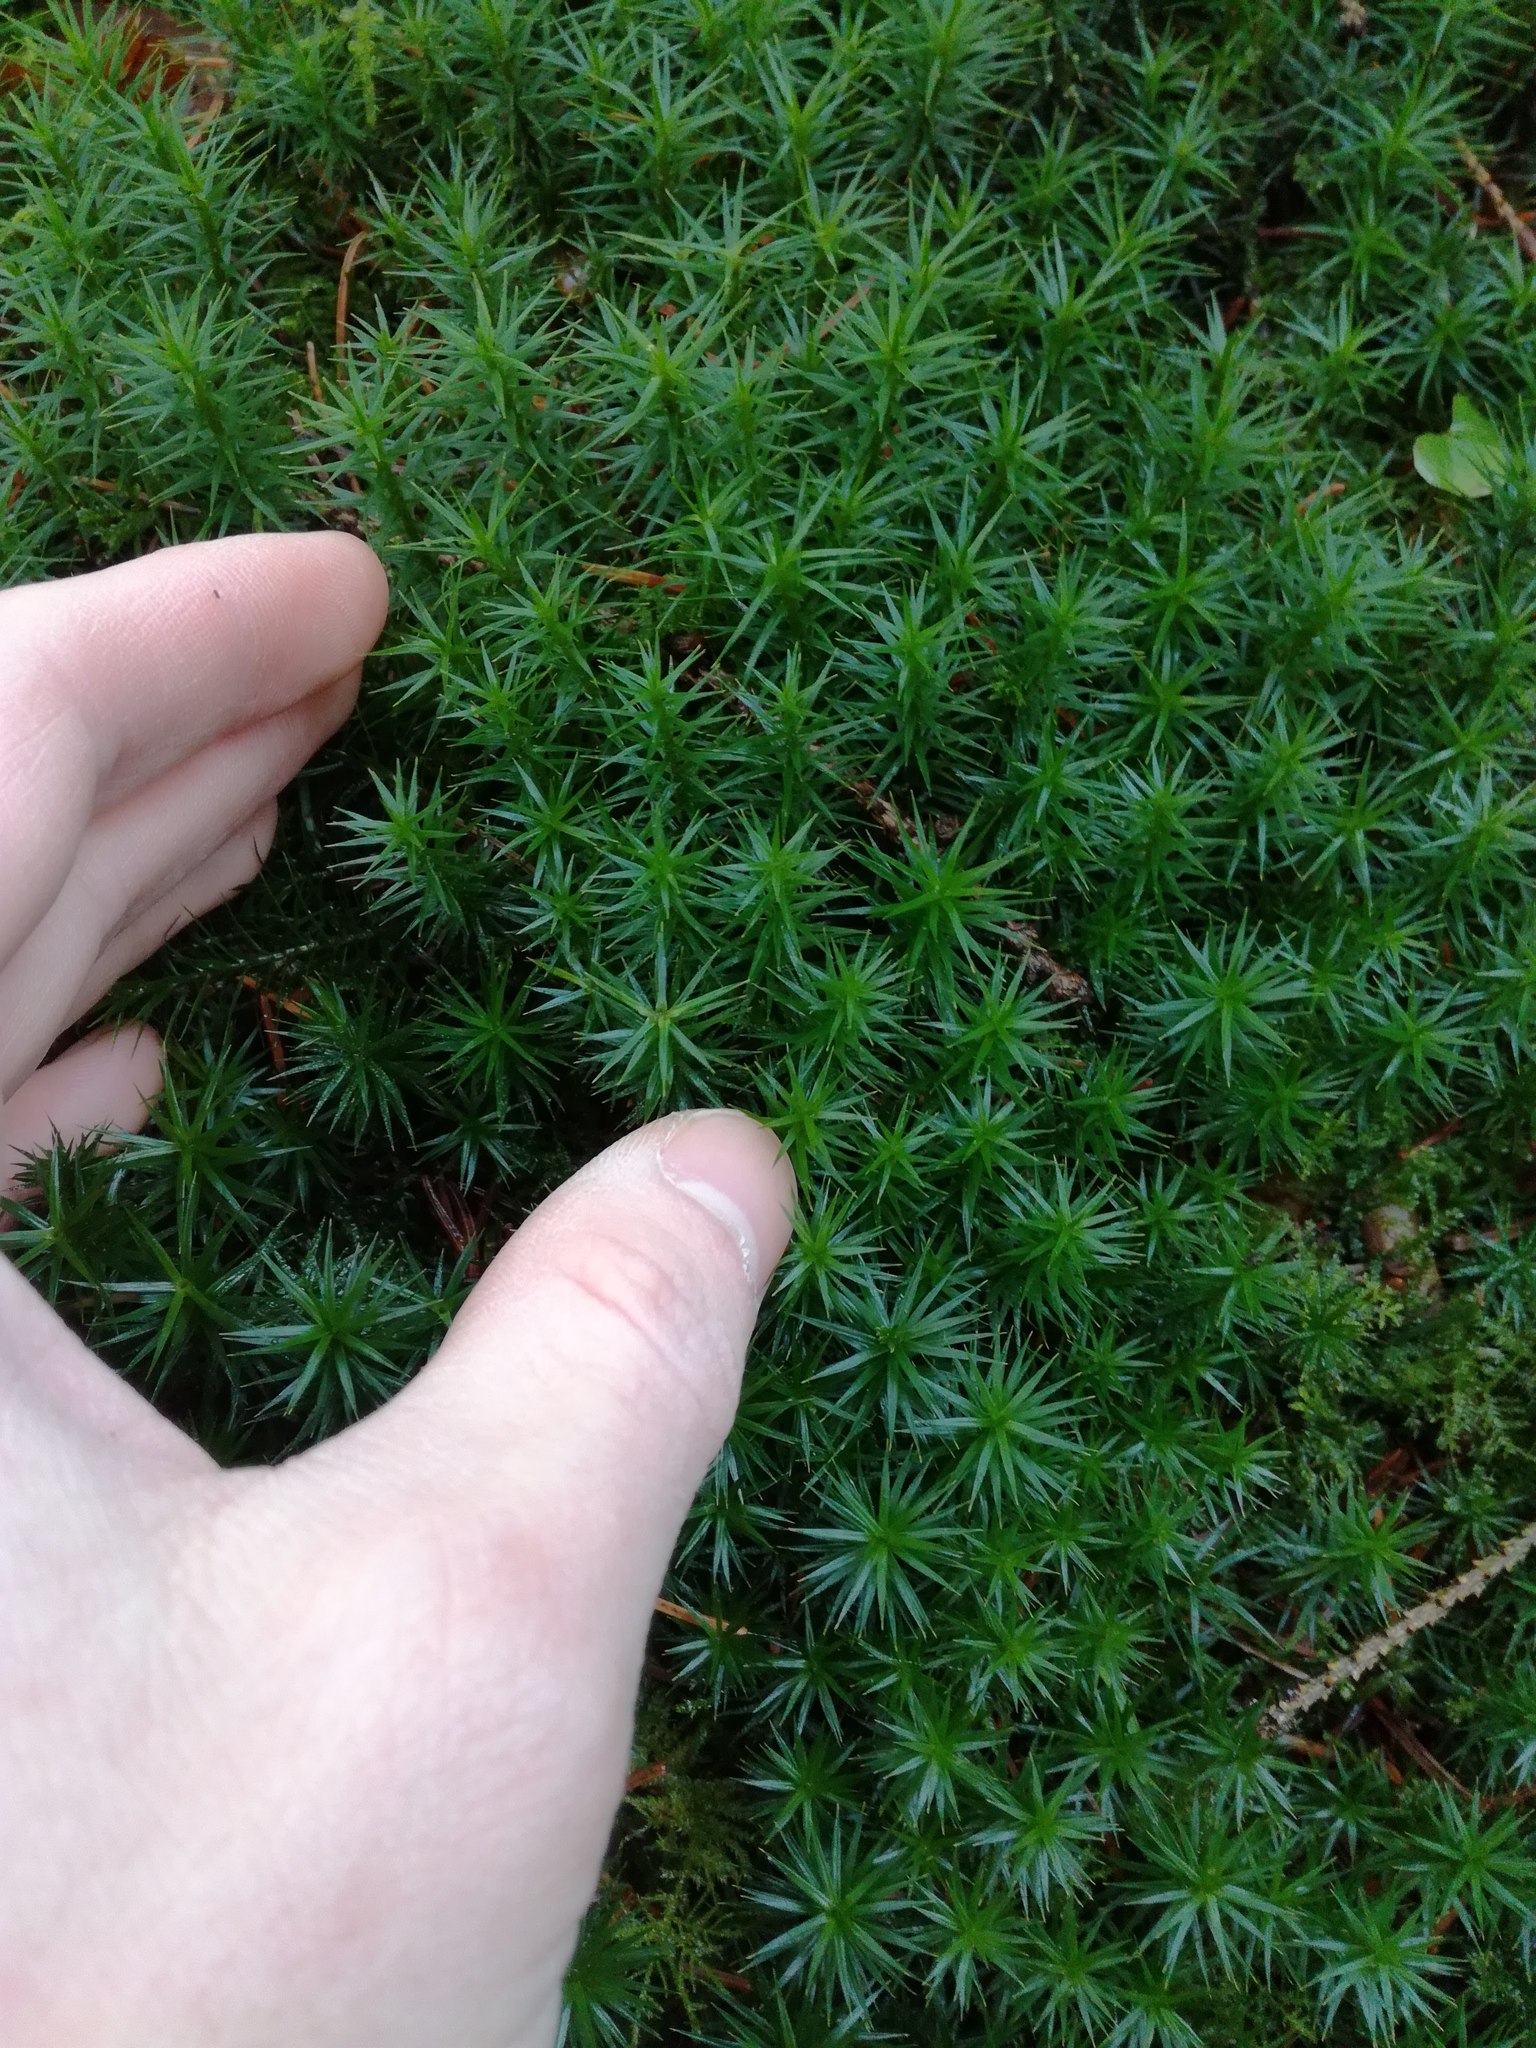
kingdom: Plantae
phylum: Bryophyta
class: Polytrichopsida
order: Polytrichales
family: Polytrichaceae
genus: Polytrichum
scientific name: Polytrichum formosum
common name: Bank haircap moss
